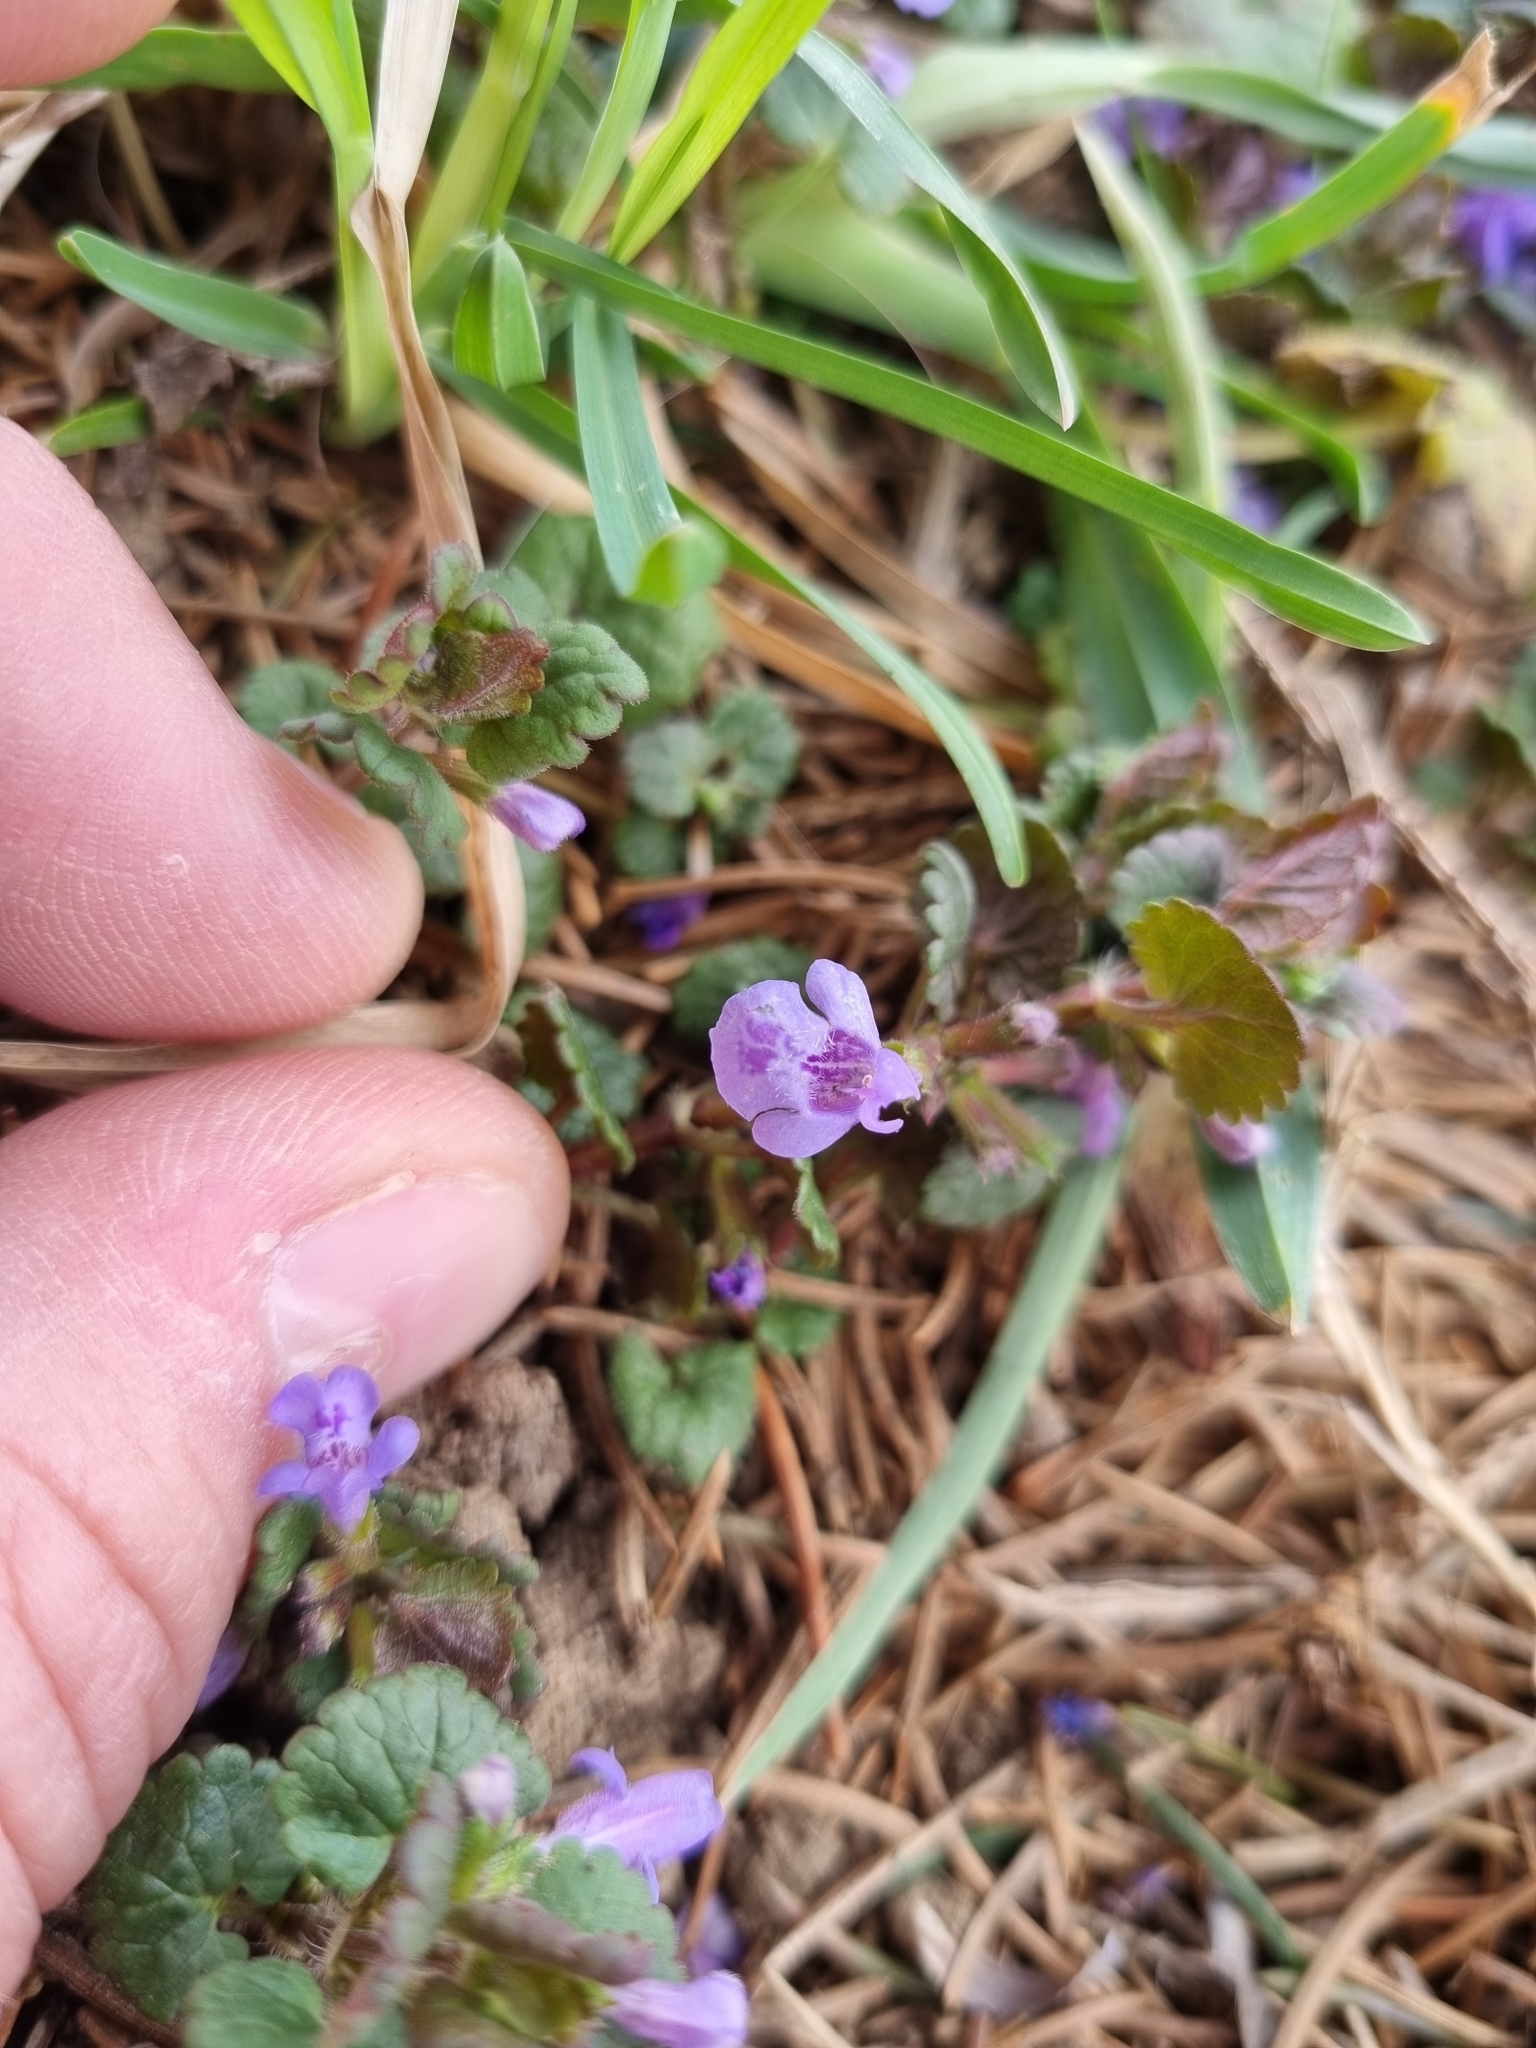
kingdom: Plantae
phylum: Tracheophyta
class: Magnoliopsida
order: Lamiales
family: Lamiaceae
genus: Glechoma
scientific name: Glechoma hederacea
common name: Ground ivy
